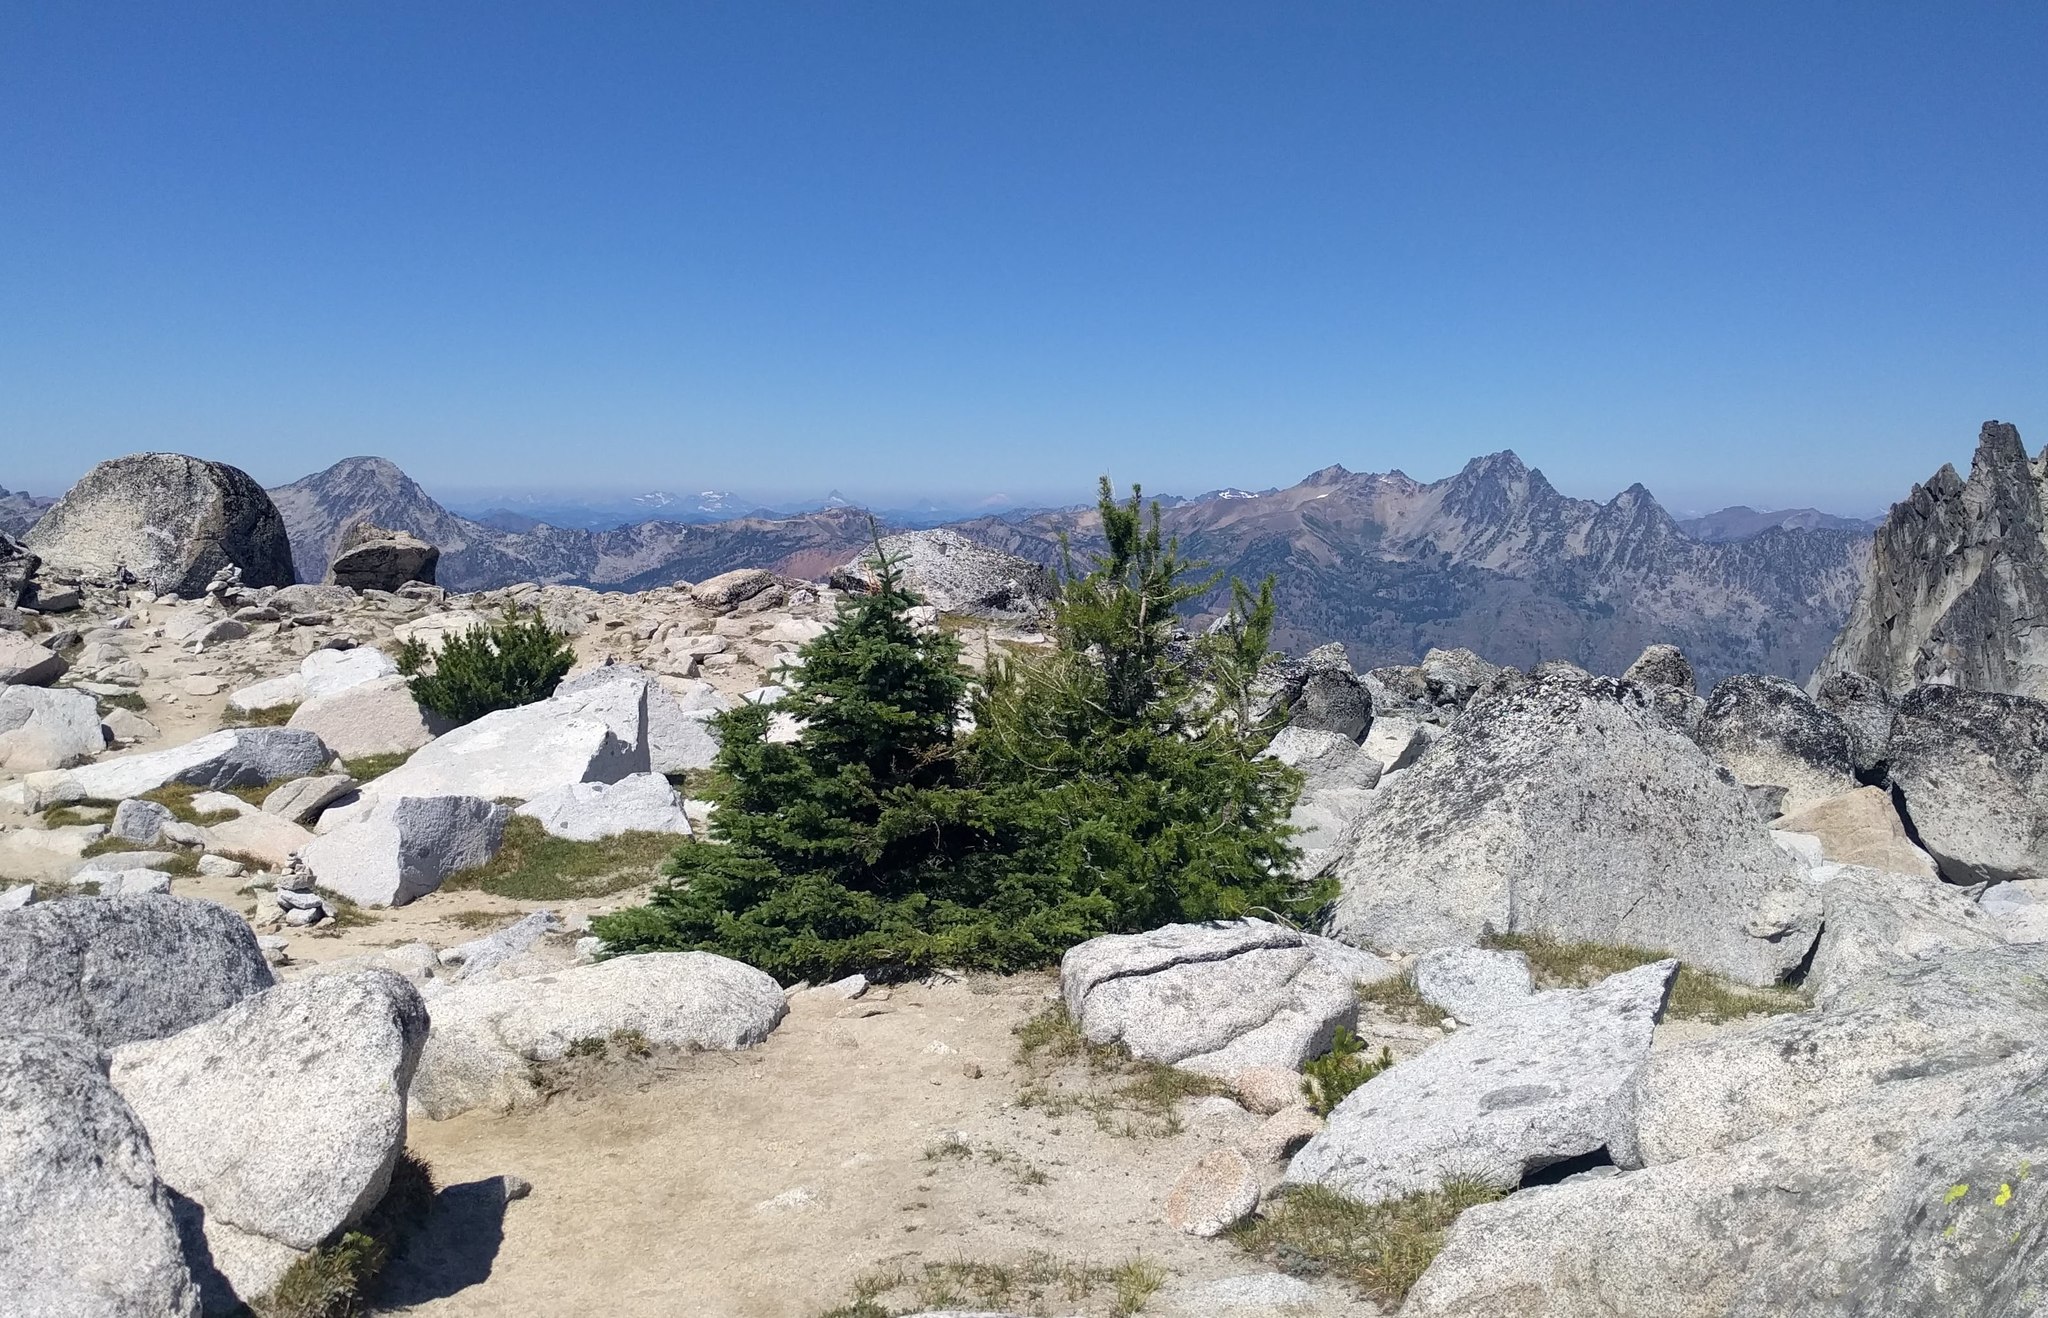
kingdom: Plantae
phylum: Tracheophyta
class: Pinopsida
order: Pinales
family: Pinaceae
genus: Abies
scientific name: Abies lasiocarpa
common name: Subalpine fir
